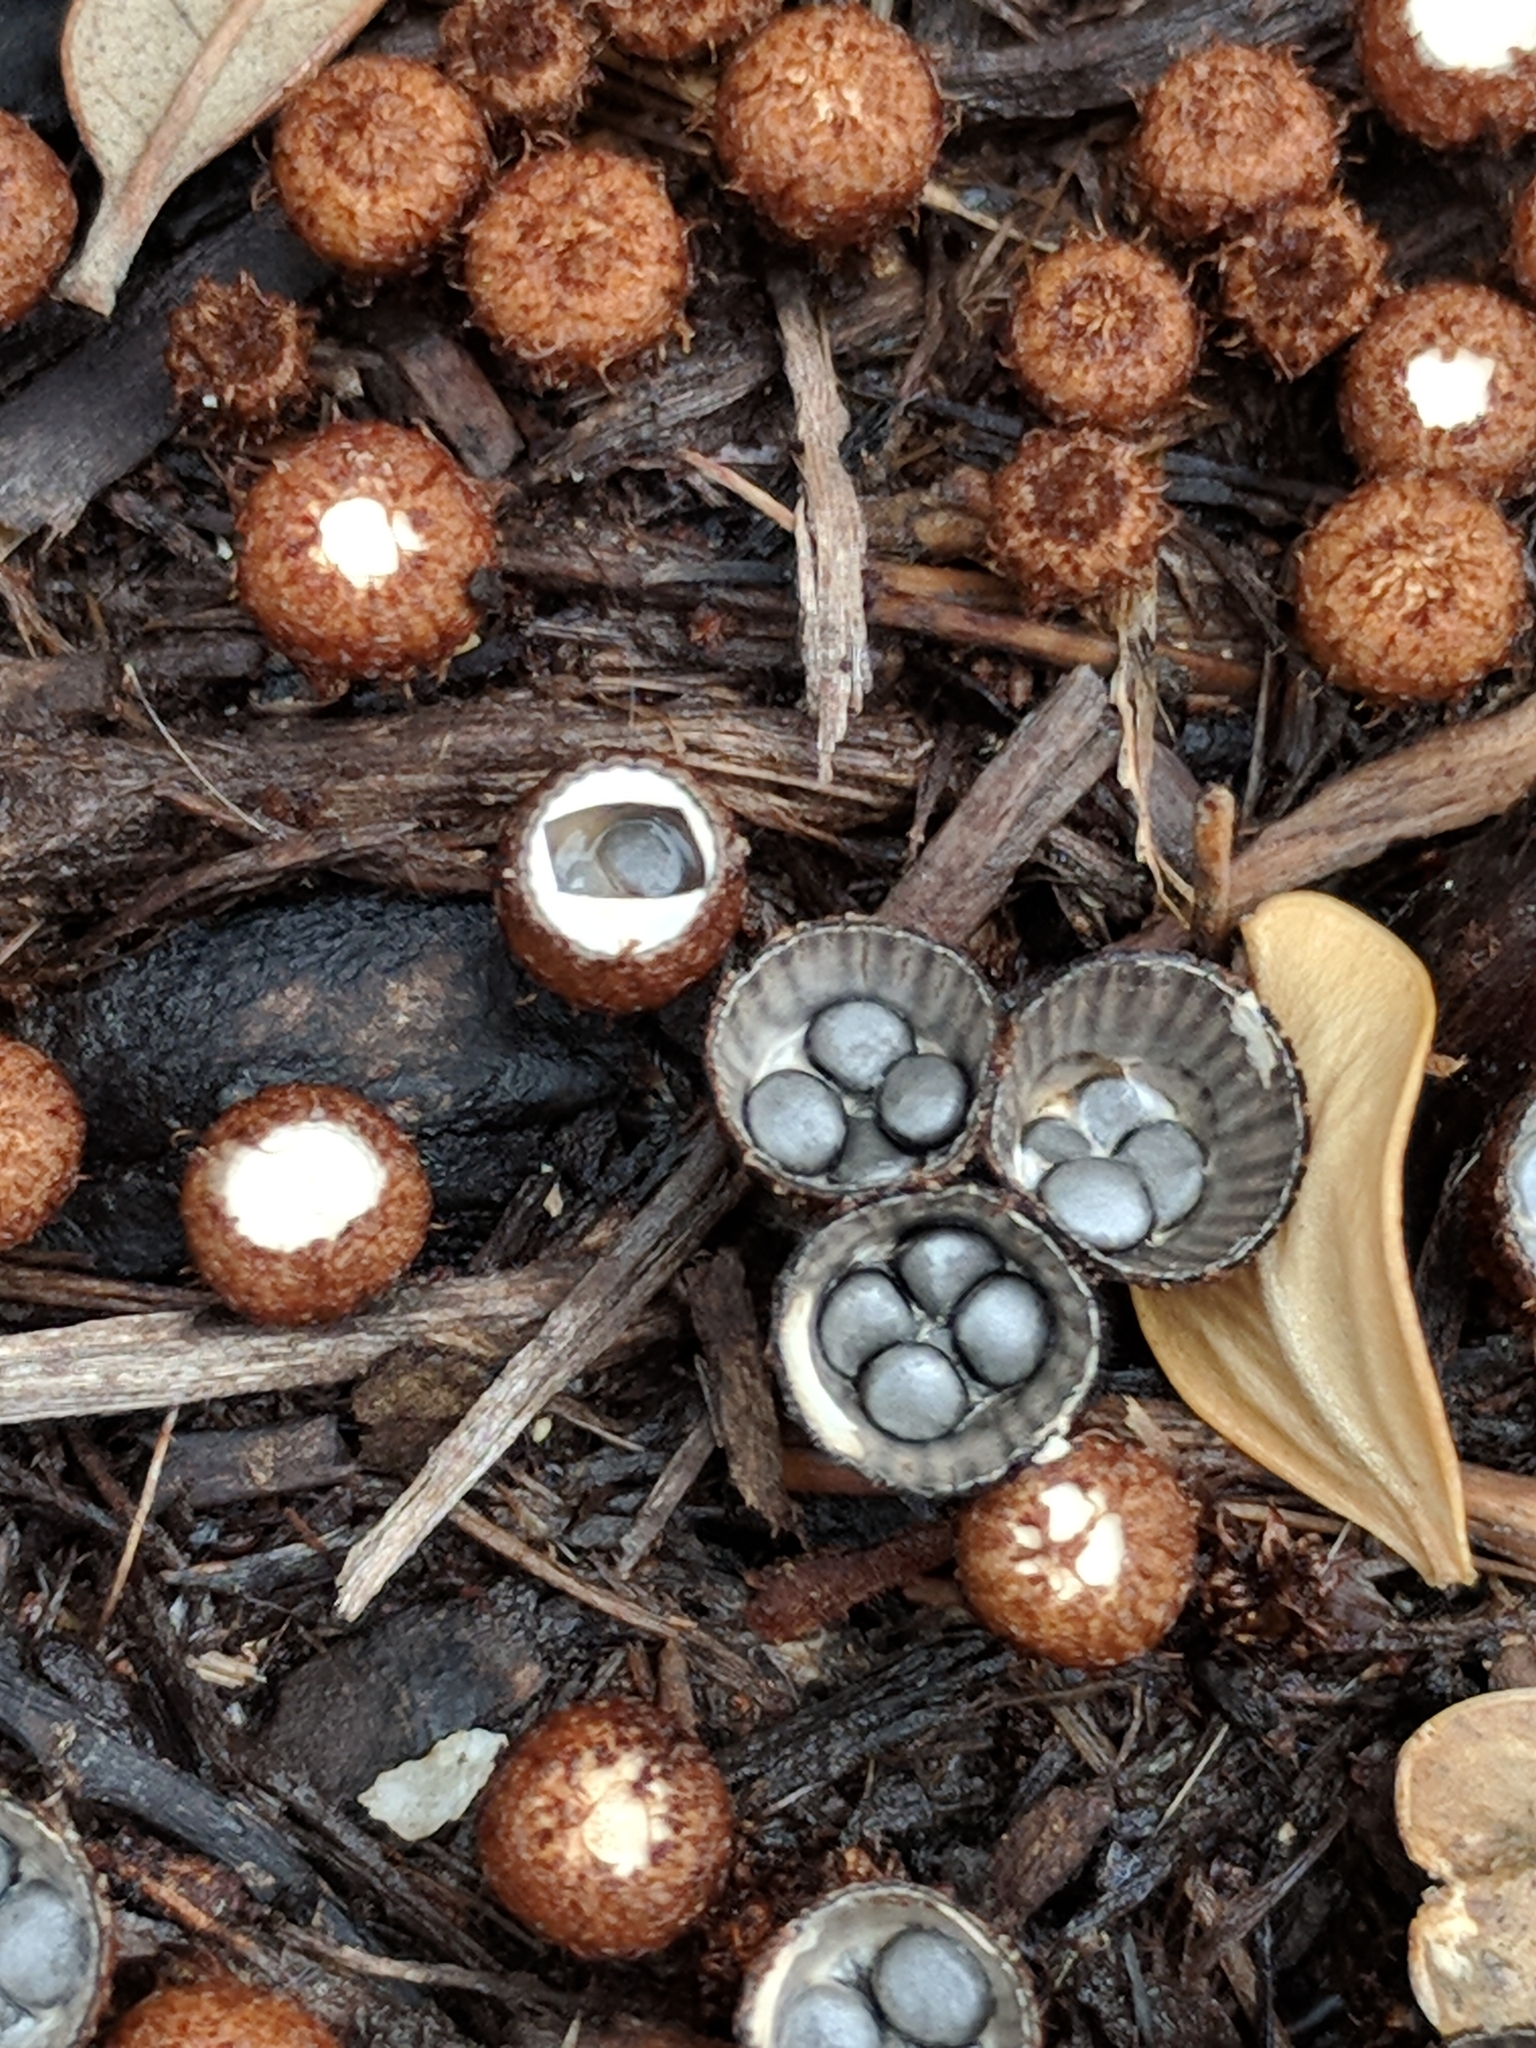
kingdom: Fungi
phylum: Basidiomycota
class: Agaricomycetes
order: Agaricales
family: Agaricaceae
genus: Cyathus
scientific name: Cyathus striatus
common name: Fluted bird's nest
